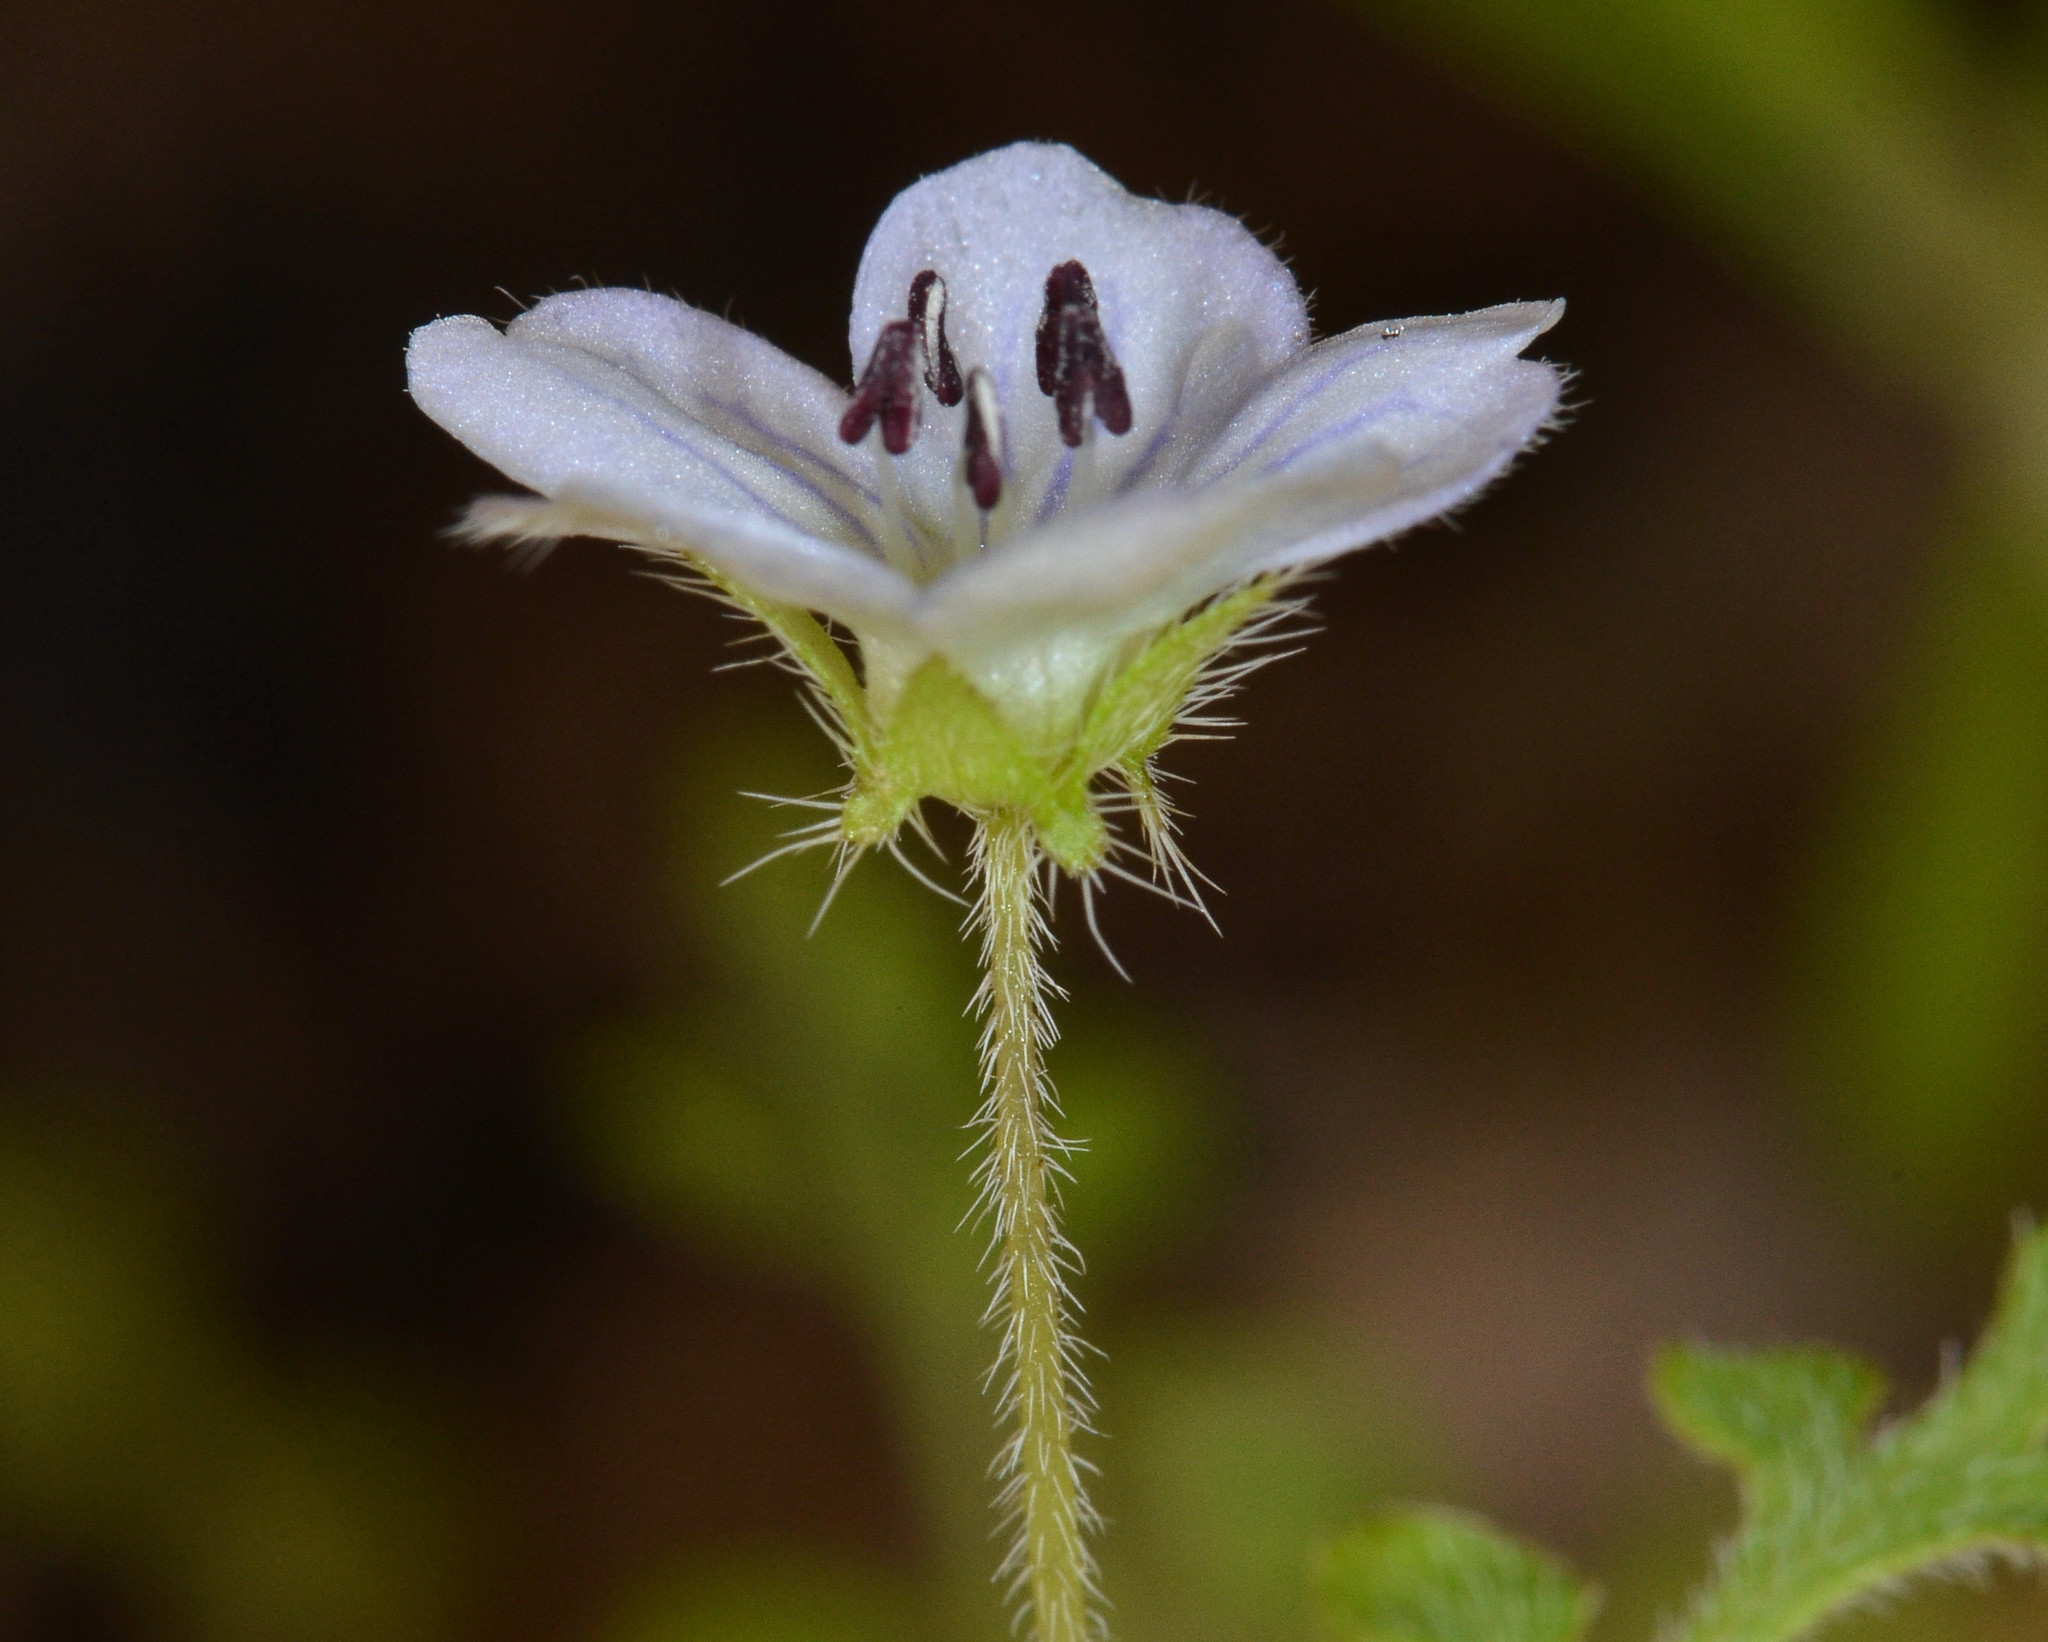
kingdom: Plantae
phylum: Tracheophyta
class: Magnoliopsida
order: Boraginales
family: Hydrophyllaceae
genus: Nemophila
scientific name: Nemophila heterophylla
